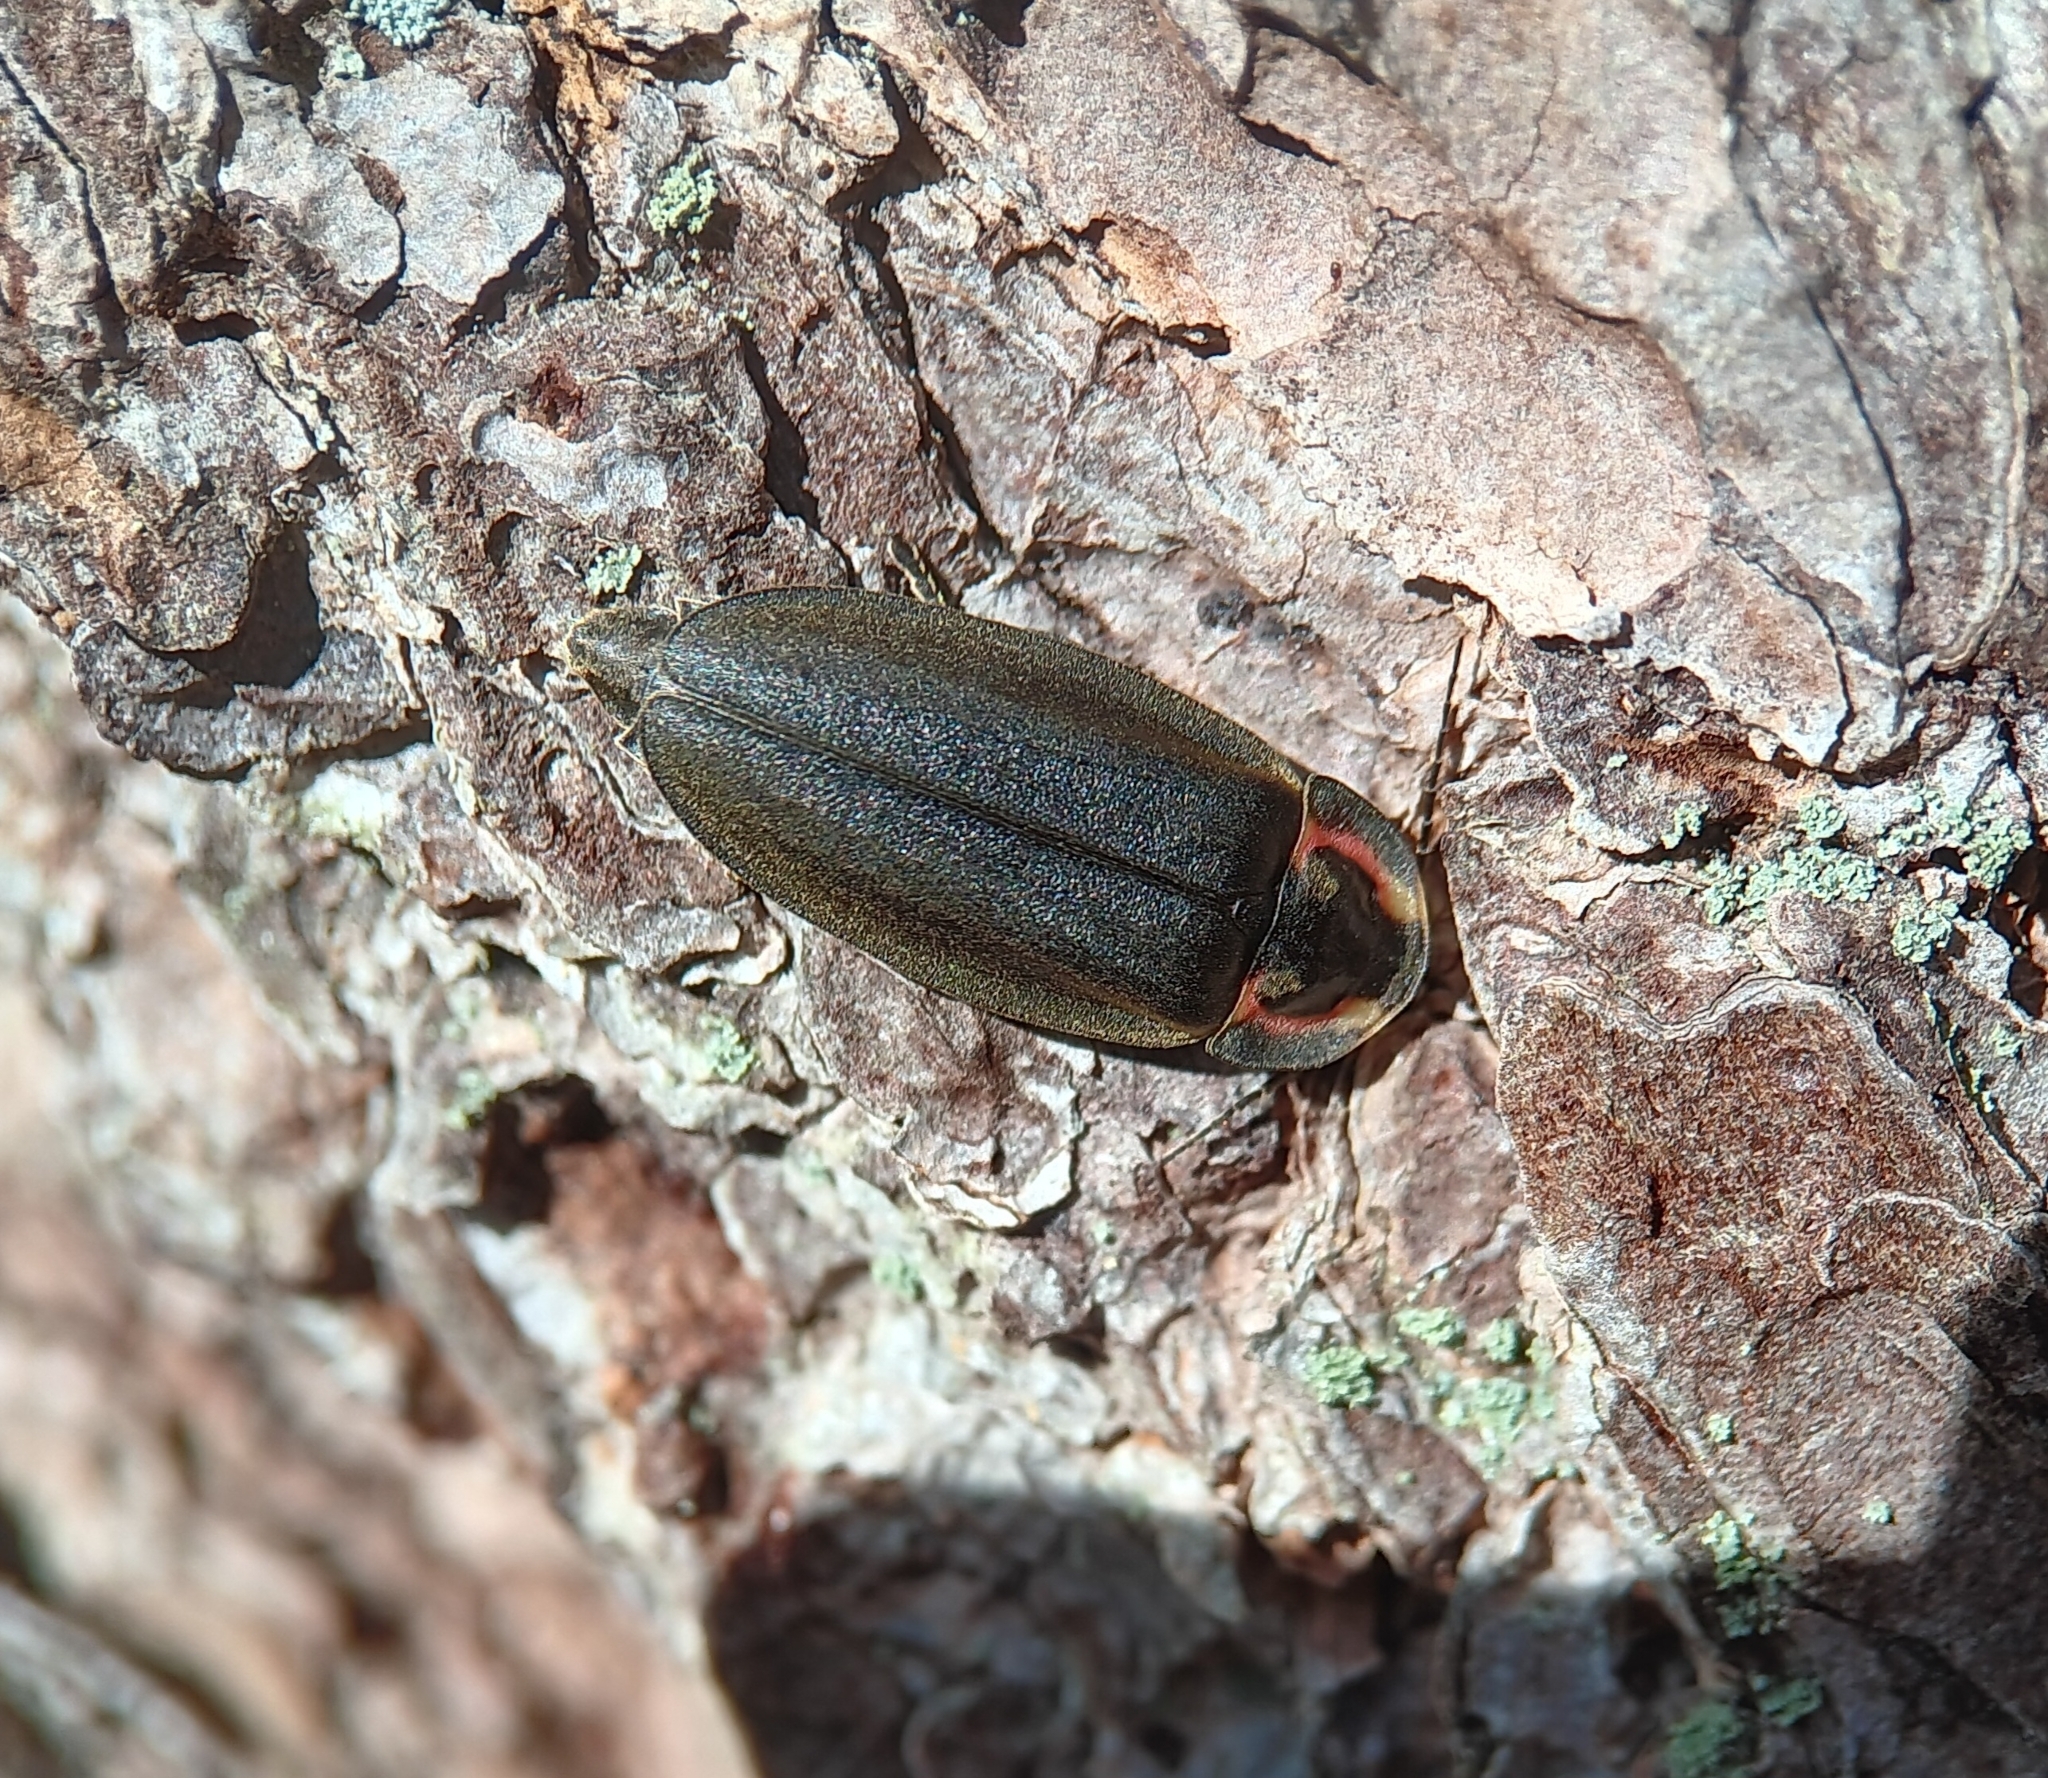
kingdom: Animalia
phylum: Arthropoda
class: Insecta
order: Coleoptera
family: Lampyridae
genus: Photinus
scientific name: Photinus corrusca
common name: Winter firefly
